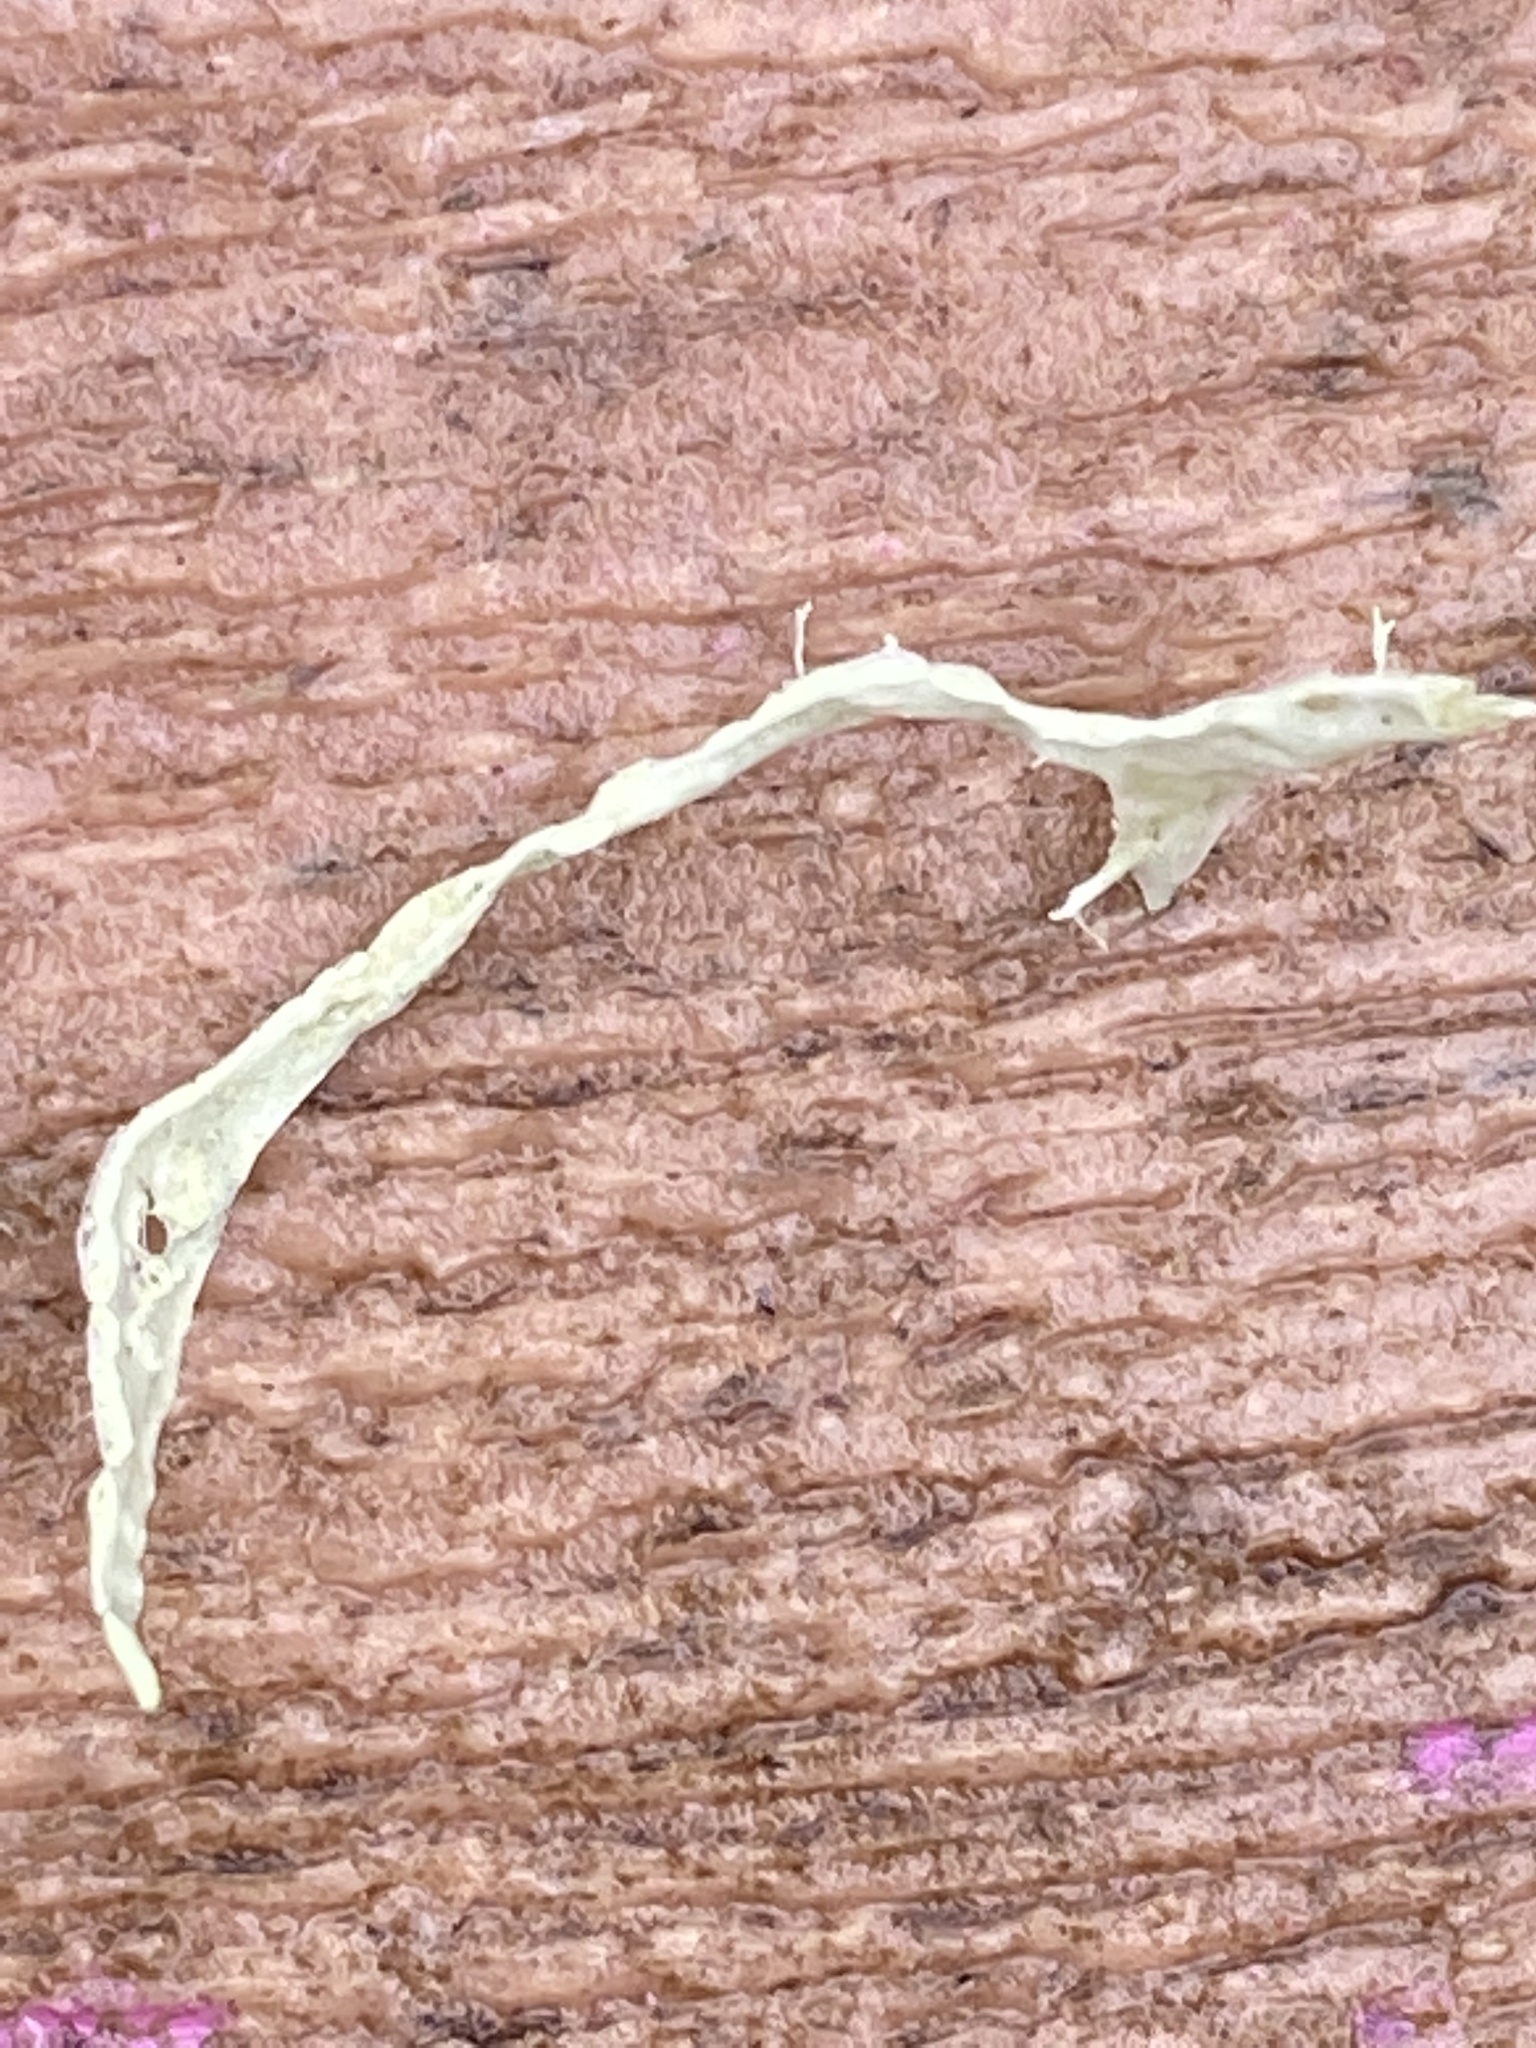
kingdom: Fungi
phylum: Ascomycota
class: Lecanoromycetes
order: Lecanorales
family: Ramalinaceae
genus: Ramalina
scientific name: Ramalina subleptocarpha
